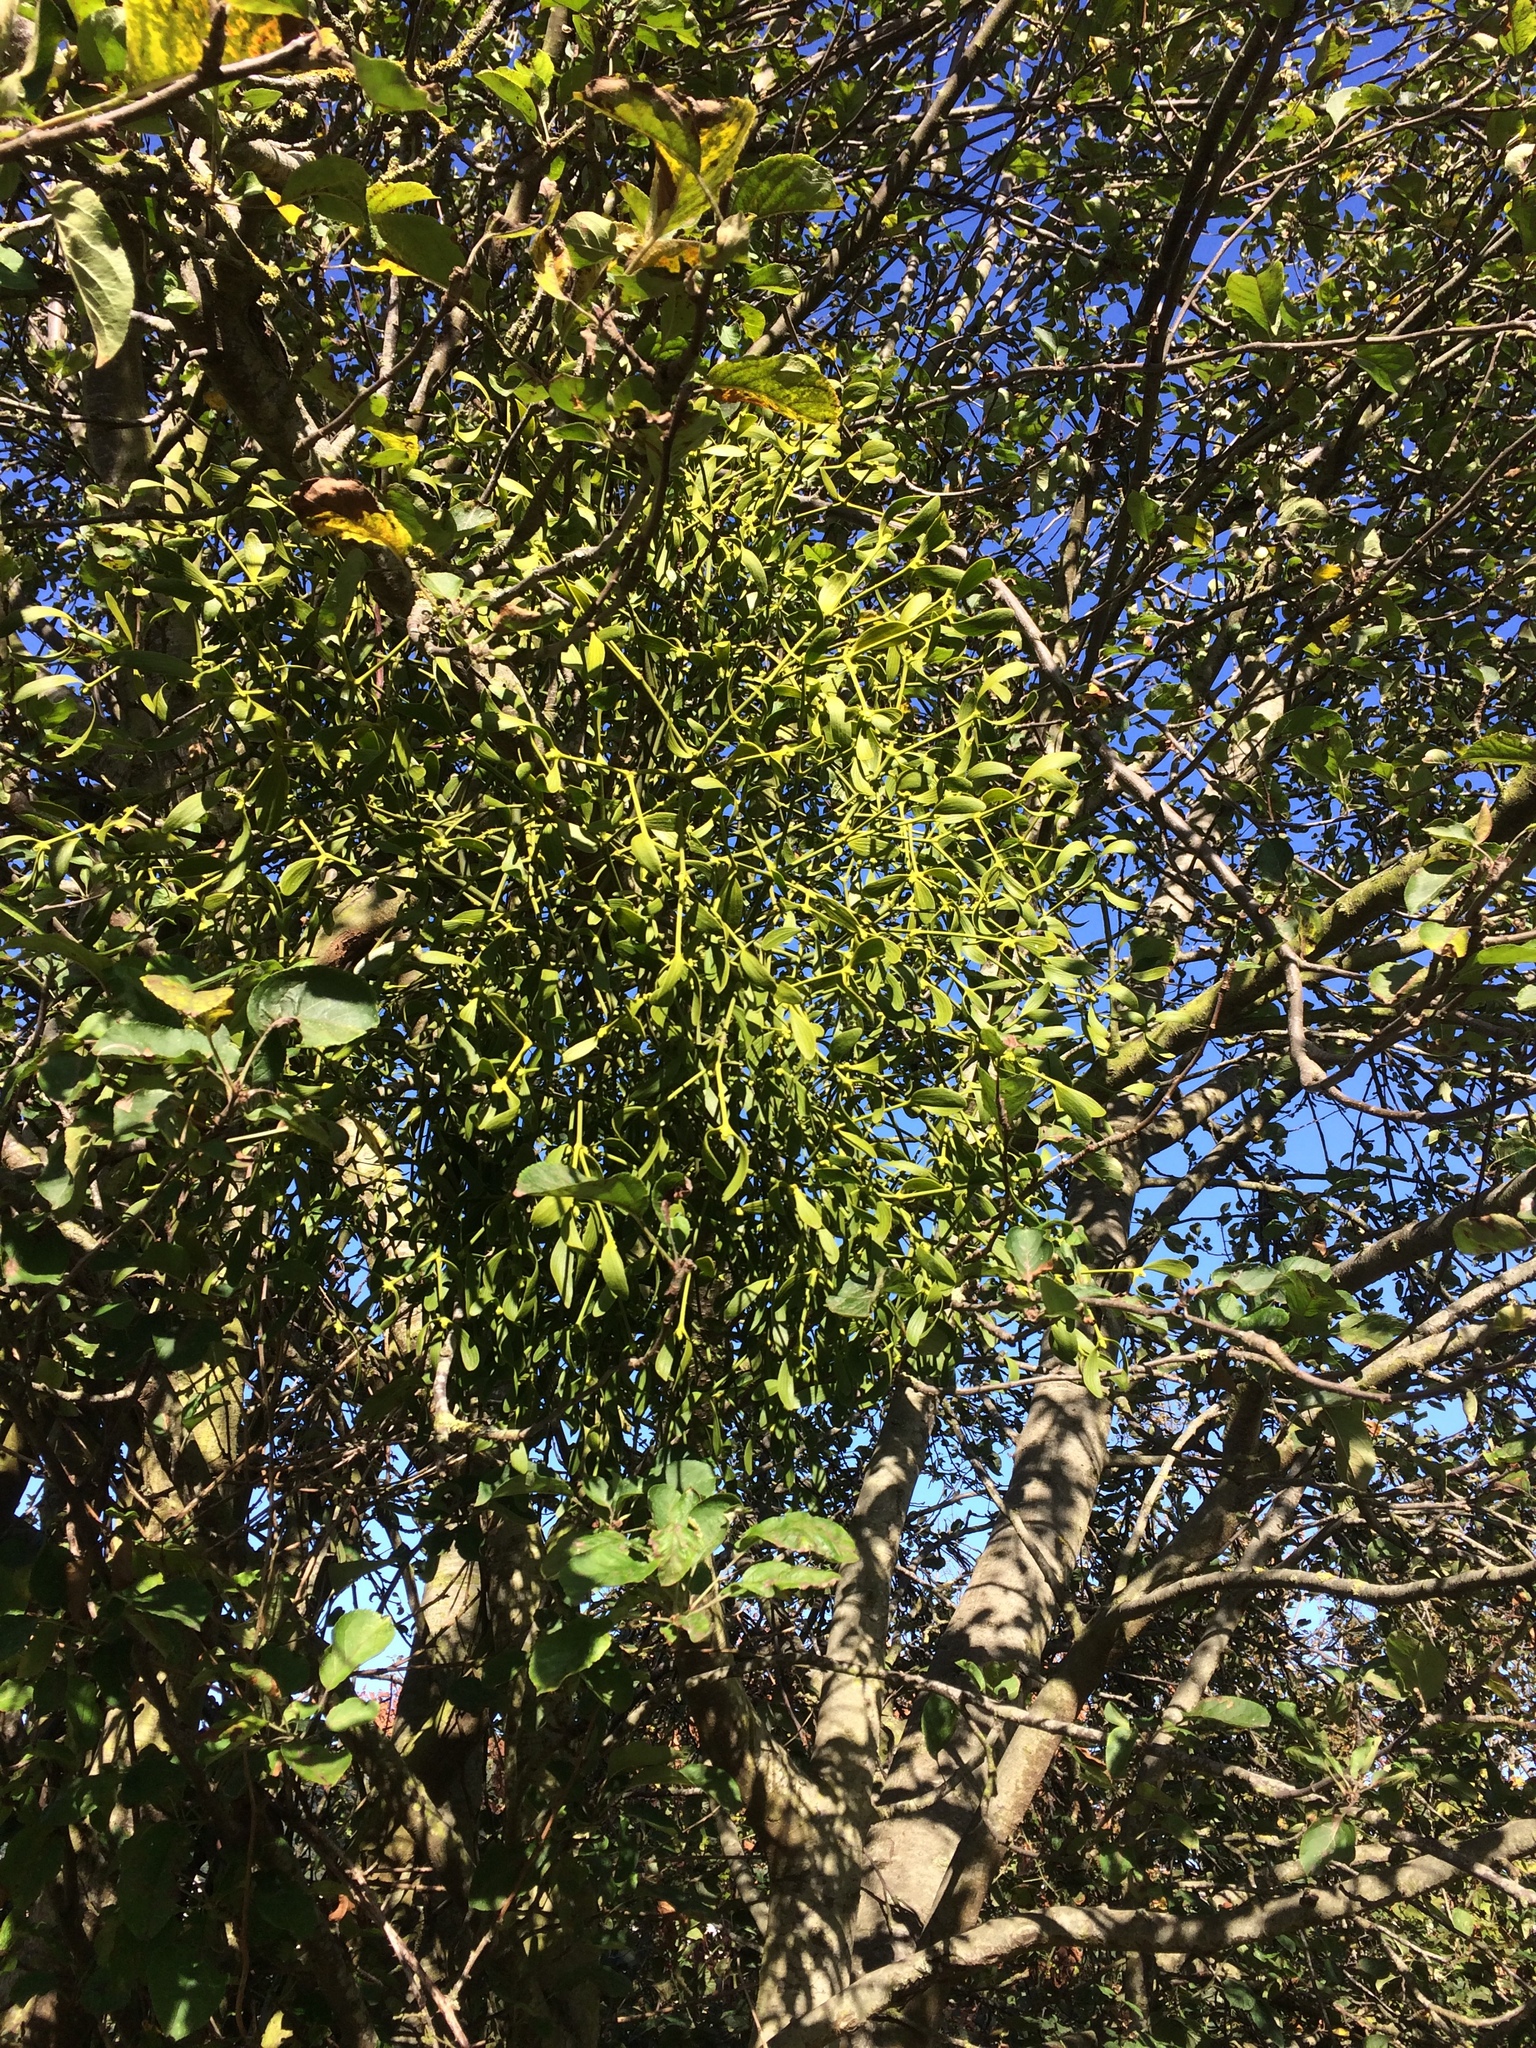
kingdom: Plantae
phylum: Tracheophyta
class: Magnoliopsida
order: Santalales
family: Viscaceae
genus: Viscum
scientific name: Viscum album
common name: Mistletoe
